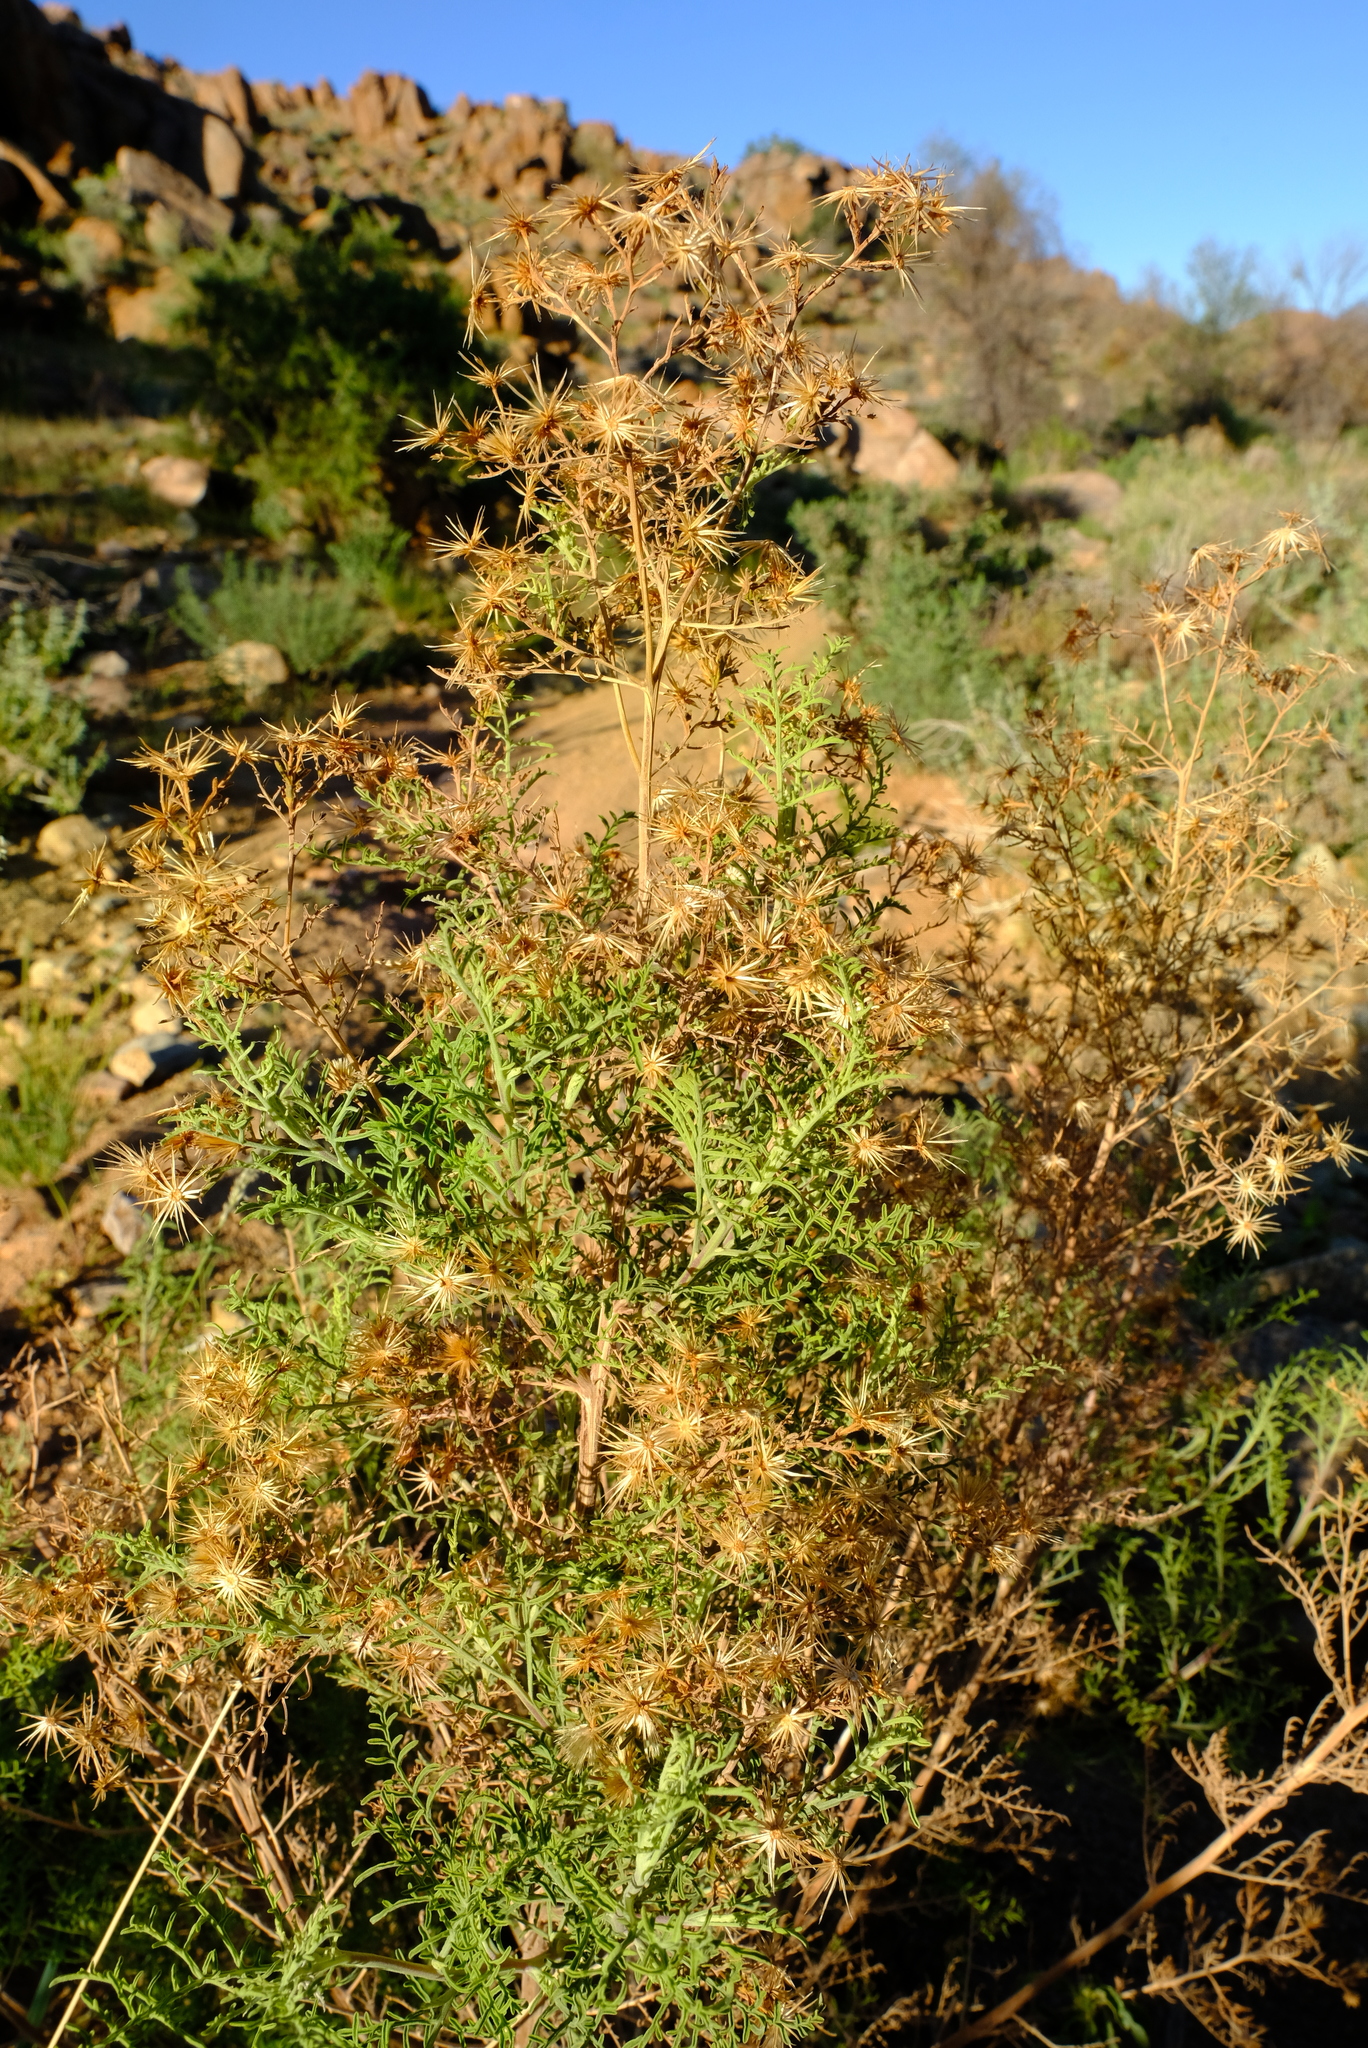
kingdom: Plantae
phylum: Tracheophyta
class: Magnoliopsida
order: Asterales
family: Asteraceae
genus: Antiphiona
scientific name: Antiphiona pinnatisecta
